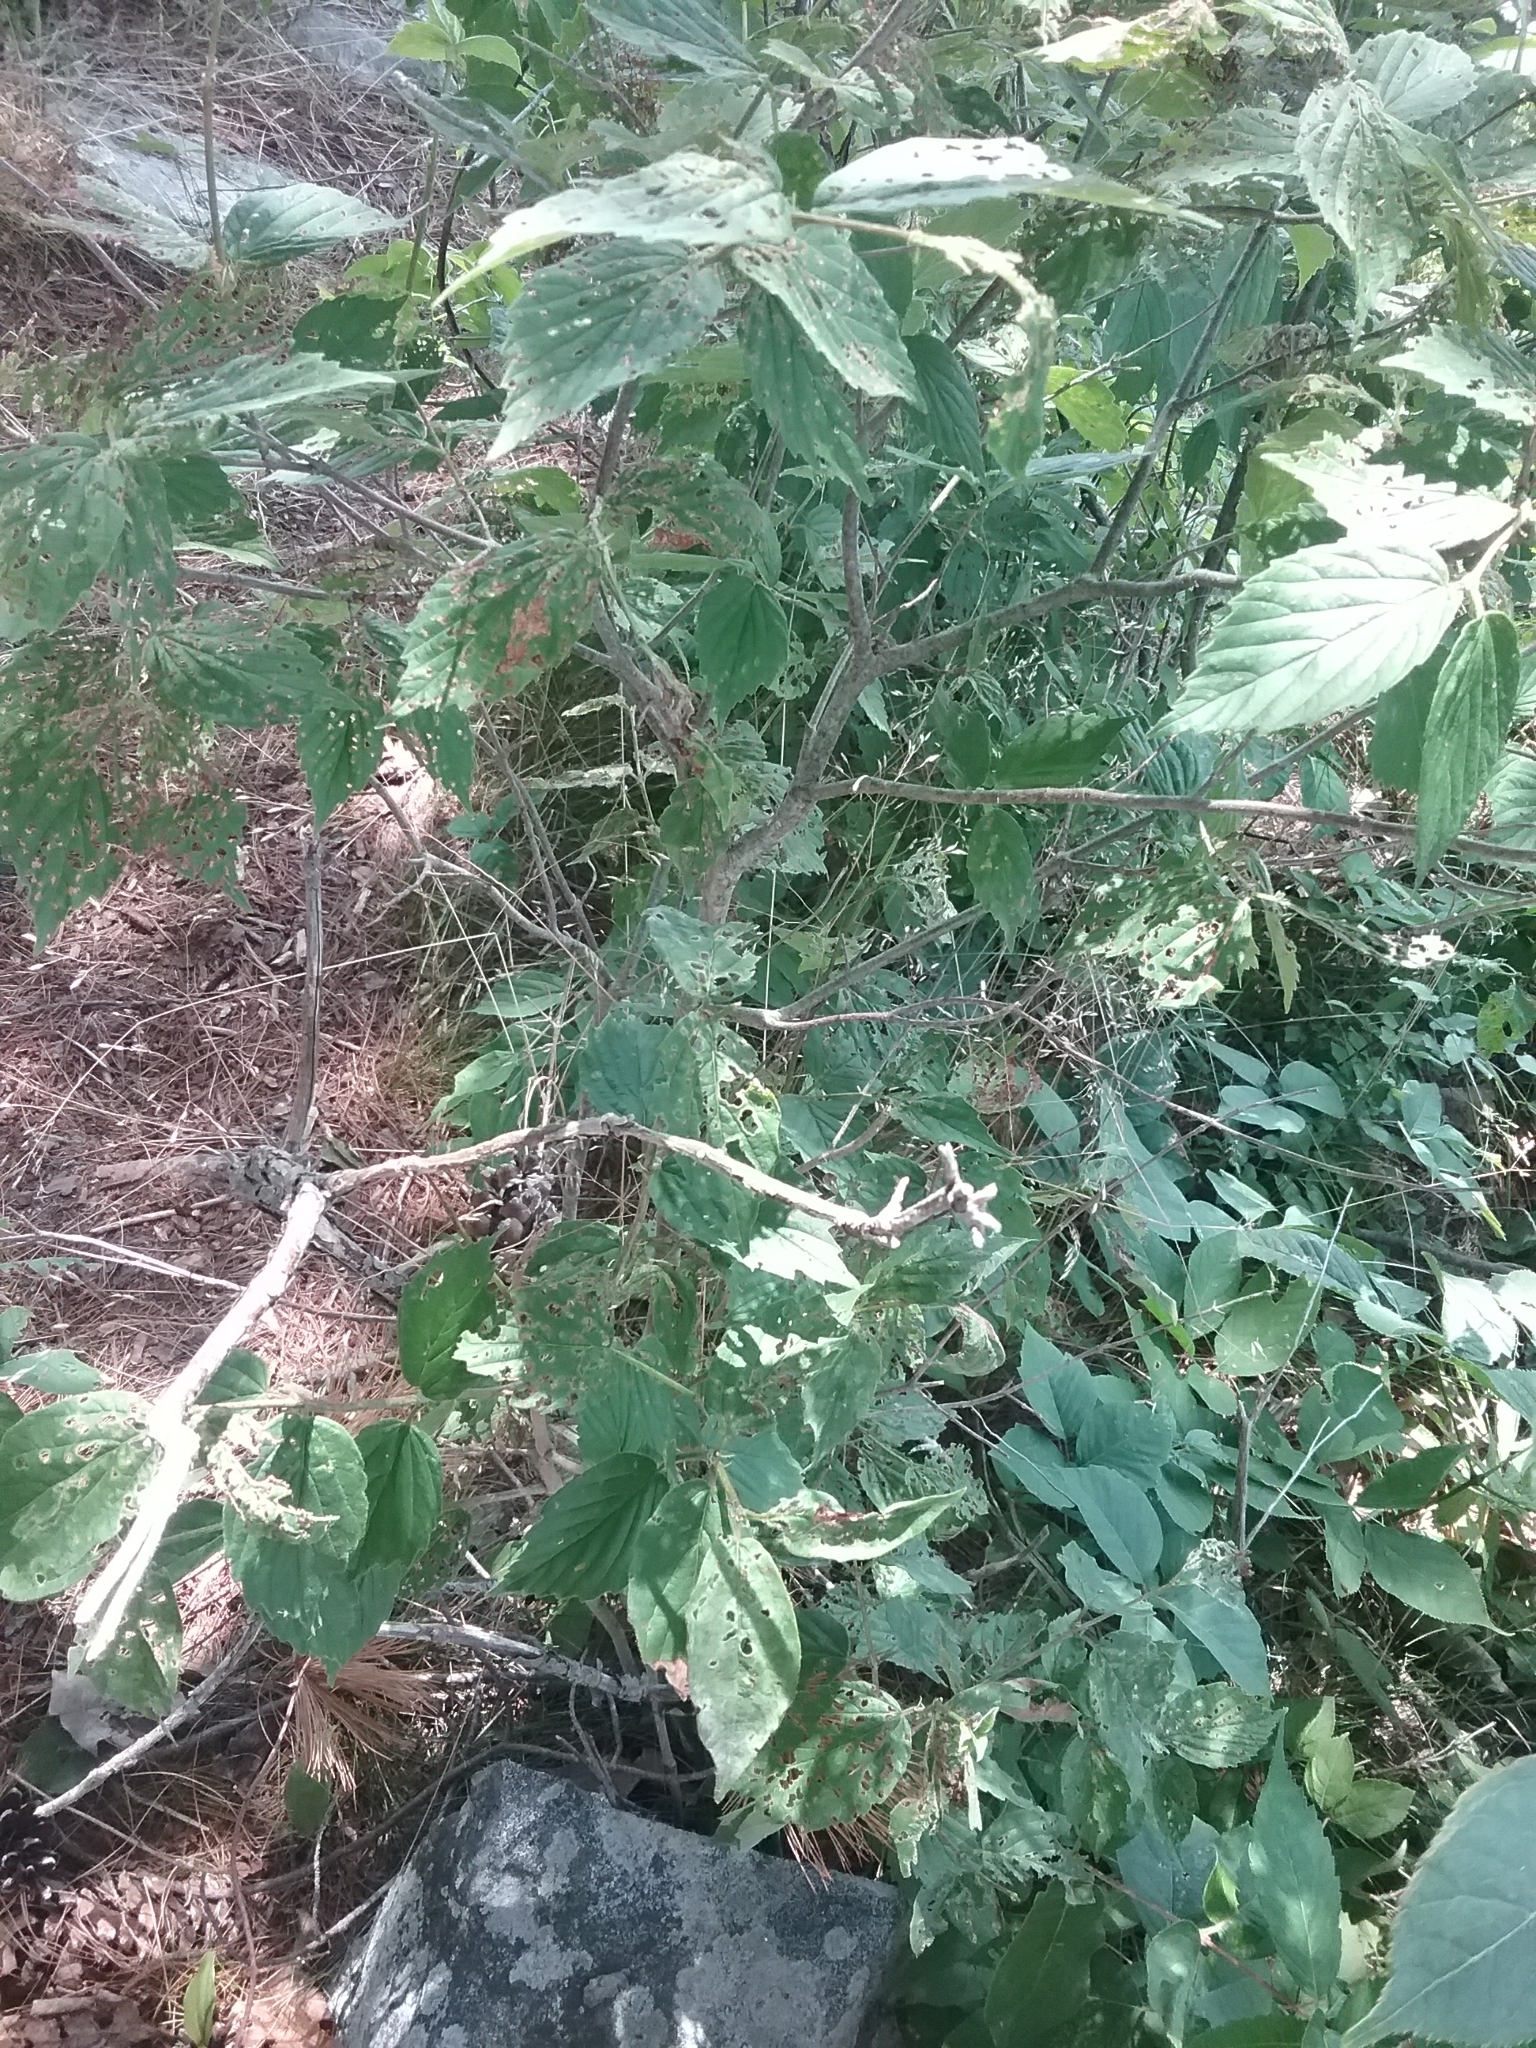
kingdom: Plantae
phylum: Tracheophyta
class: Magnoliopsida
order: Dipsacales
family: Viburnaceae
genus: Viburnum
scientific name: Viburnum rafinesqueanum
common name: Downy arrow-wood
